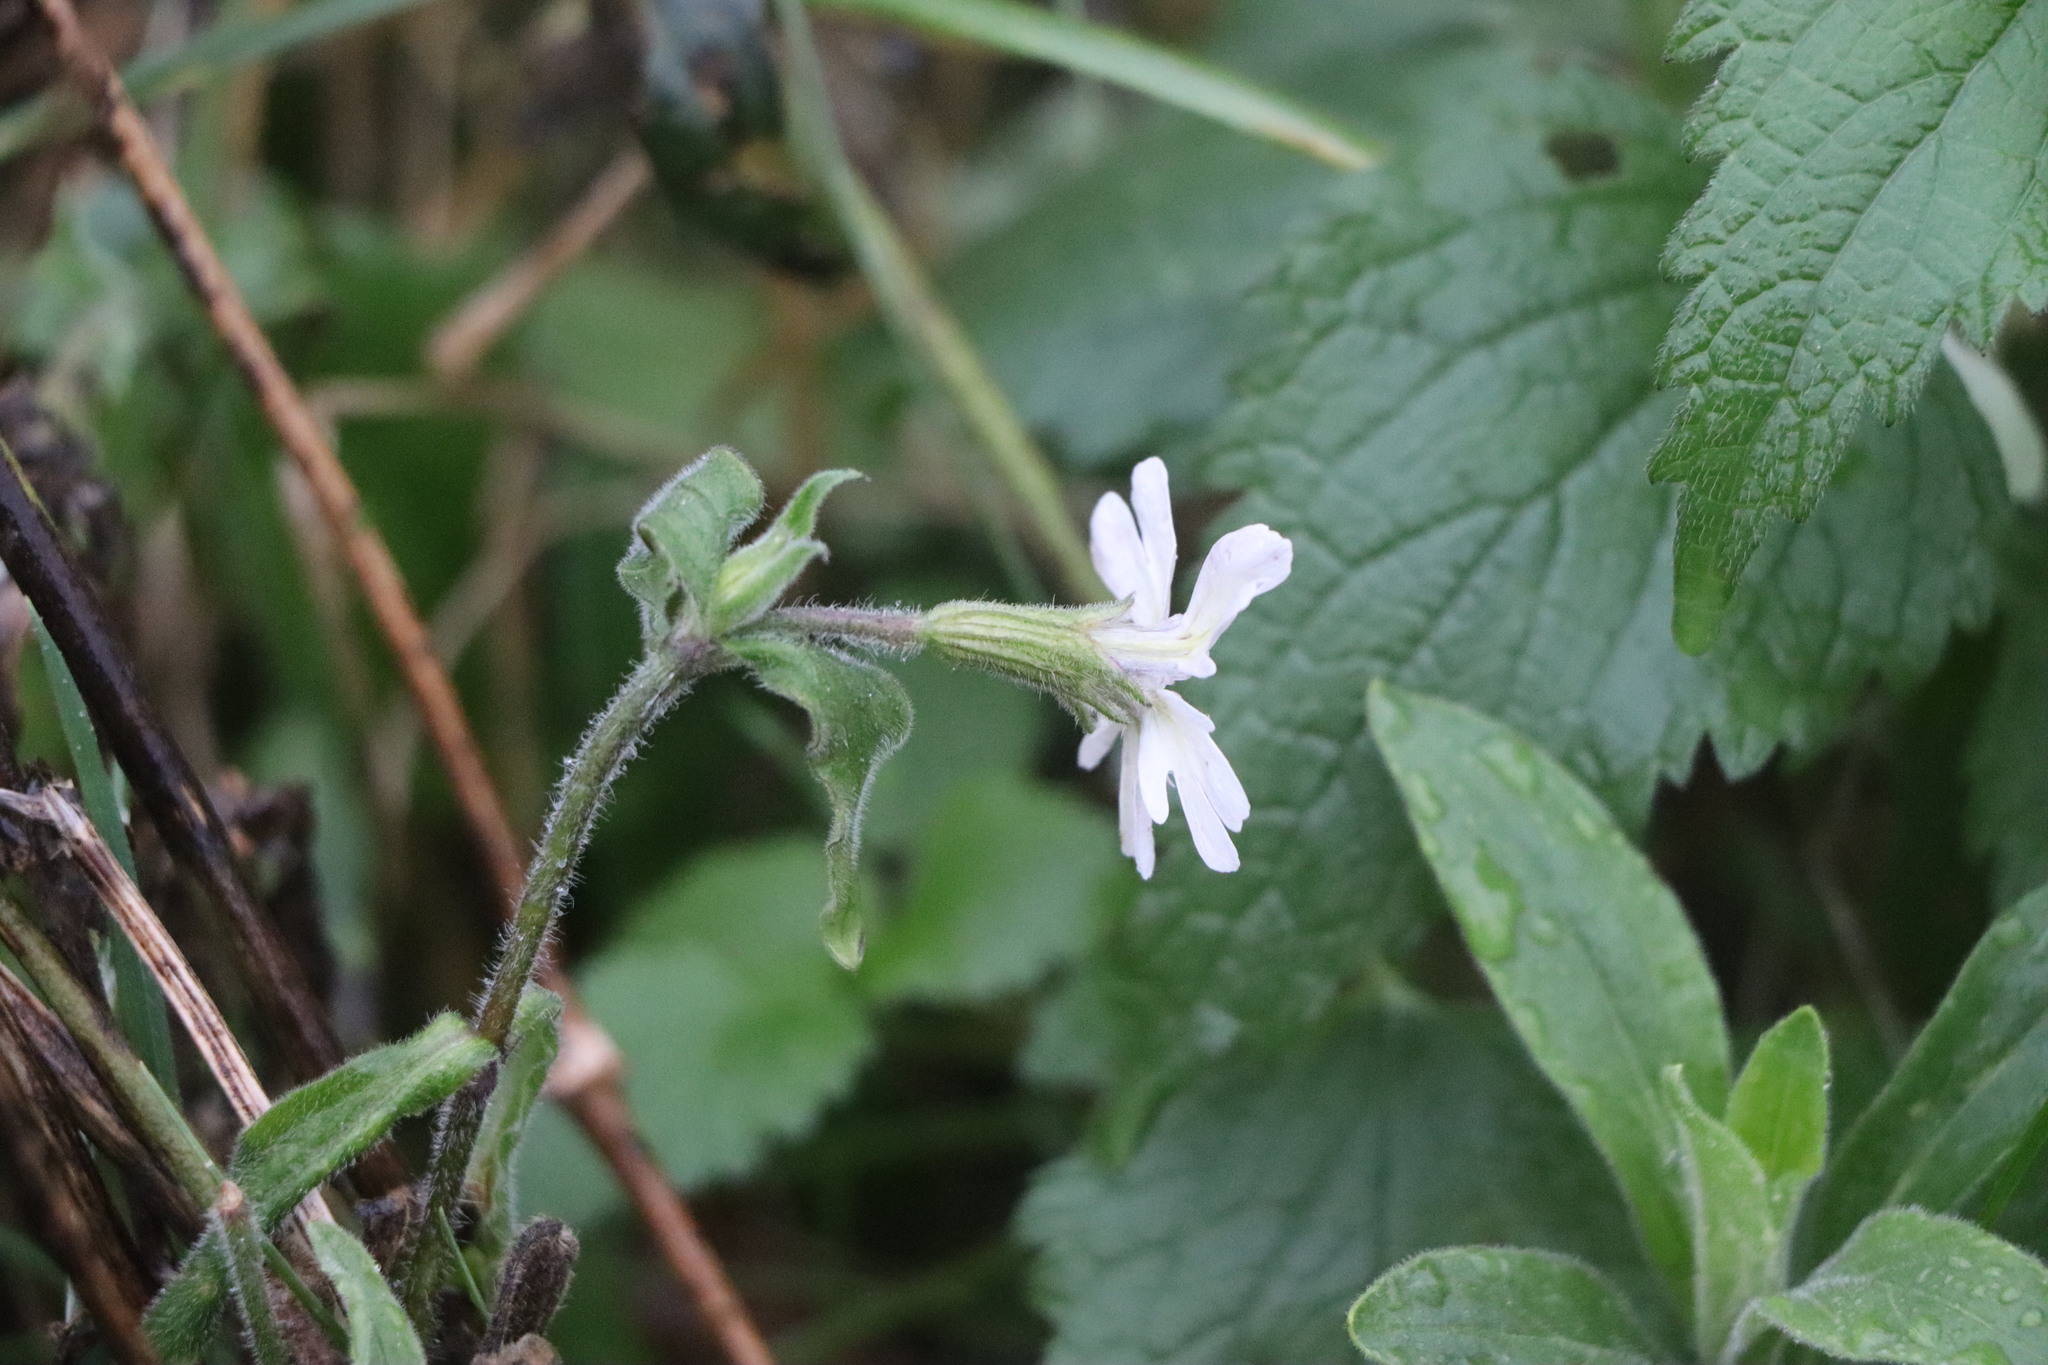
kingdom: Plantae
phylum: Tracheophyta
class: Magnoliopsida
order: Caryophyllales
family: Caryophyllaceae
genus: Silene
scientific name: Silene latifolia
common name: White campion
